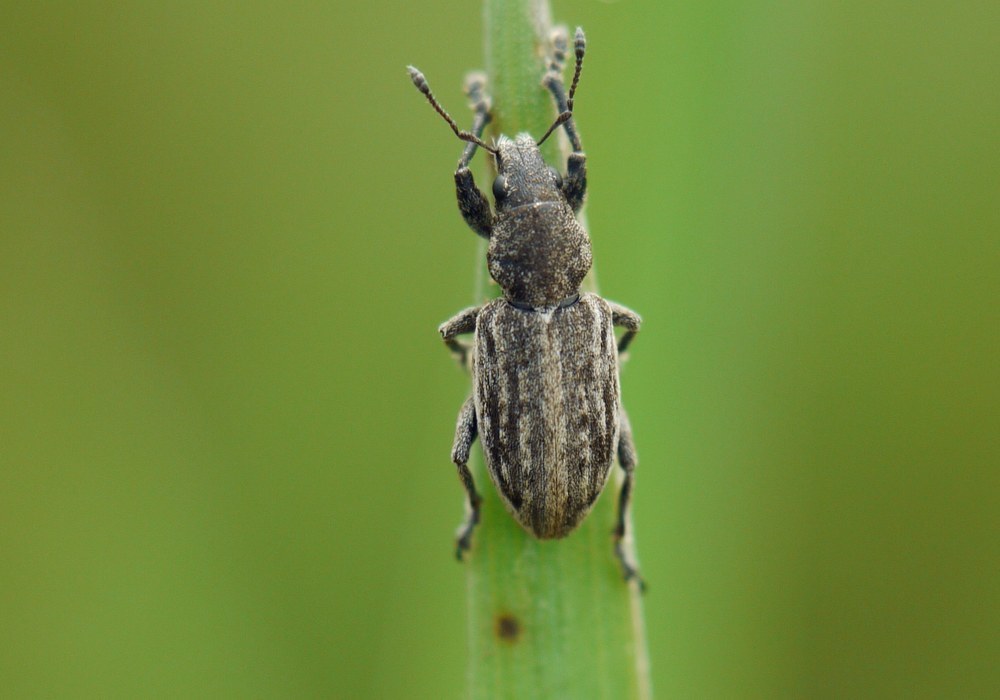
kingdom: Animalia
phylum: Arthropoda
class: Insecta
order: Coleoptera
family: Curculionidae
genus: Tanymecus
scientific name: Tanymecus dilaticollis
